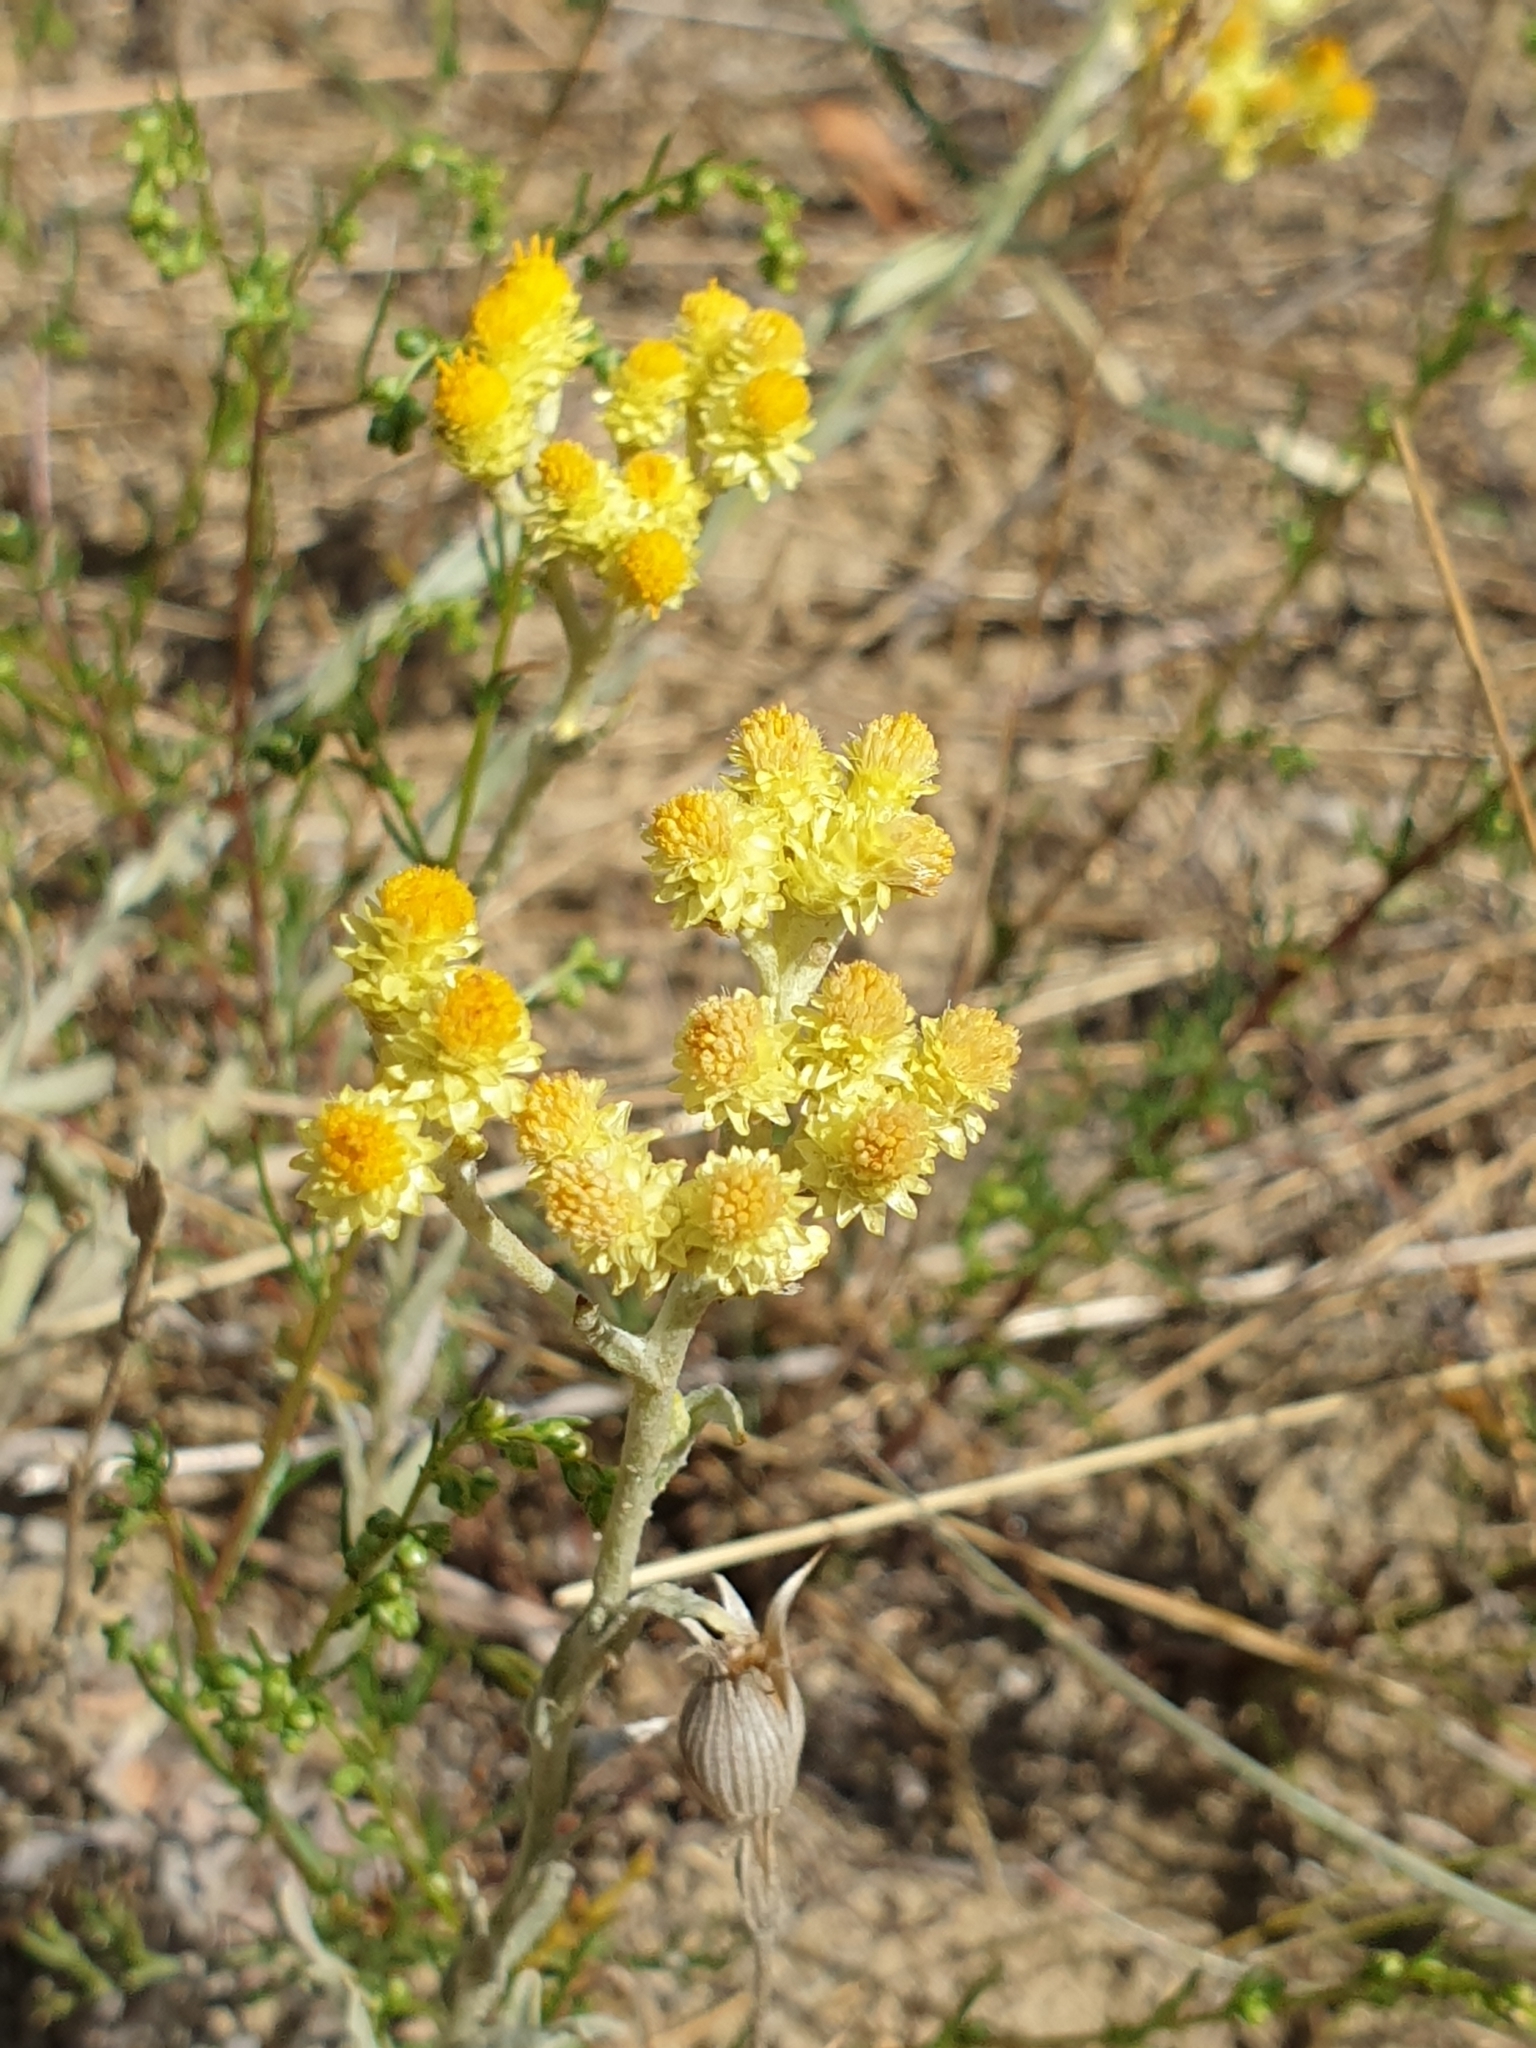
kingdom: Plantae
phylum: Tracheophyta
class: Magnoliopsida
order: Asterales
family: Asteraceae
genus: Helichrysum
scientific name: Helichrysum arenarium
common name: Strawflower
